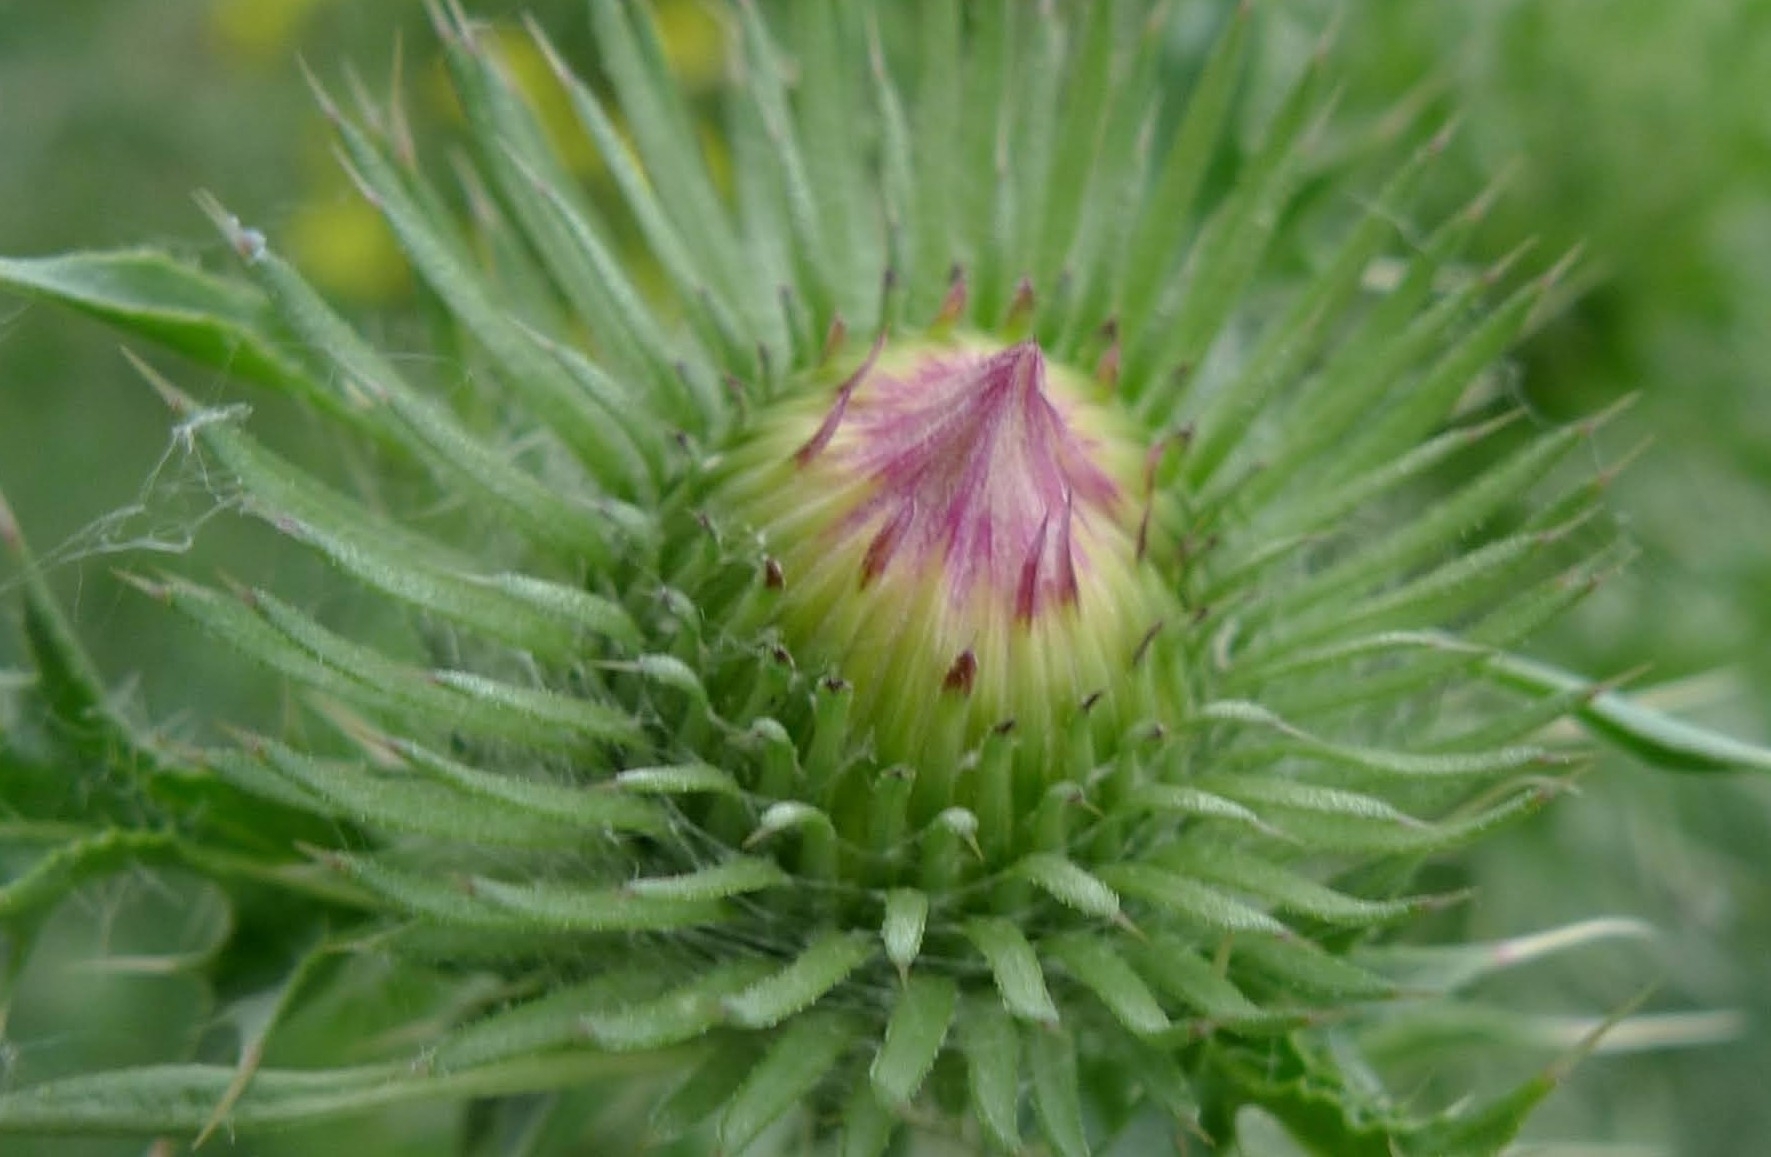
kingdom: Plantae
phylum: Tracheophyta
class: Magnoliopsida
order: Asterales
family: Asteraceae
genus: Carduus
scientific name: Carduus acanthoides
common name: Plumeless thistle
